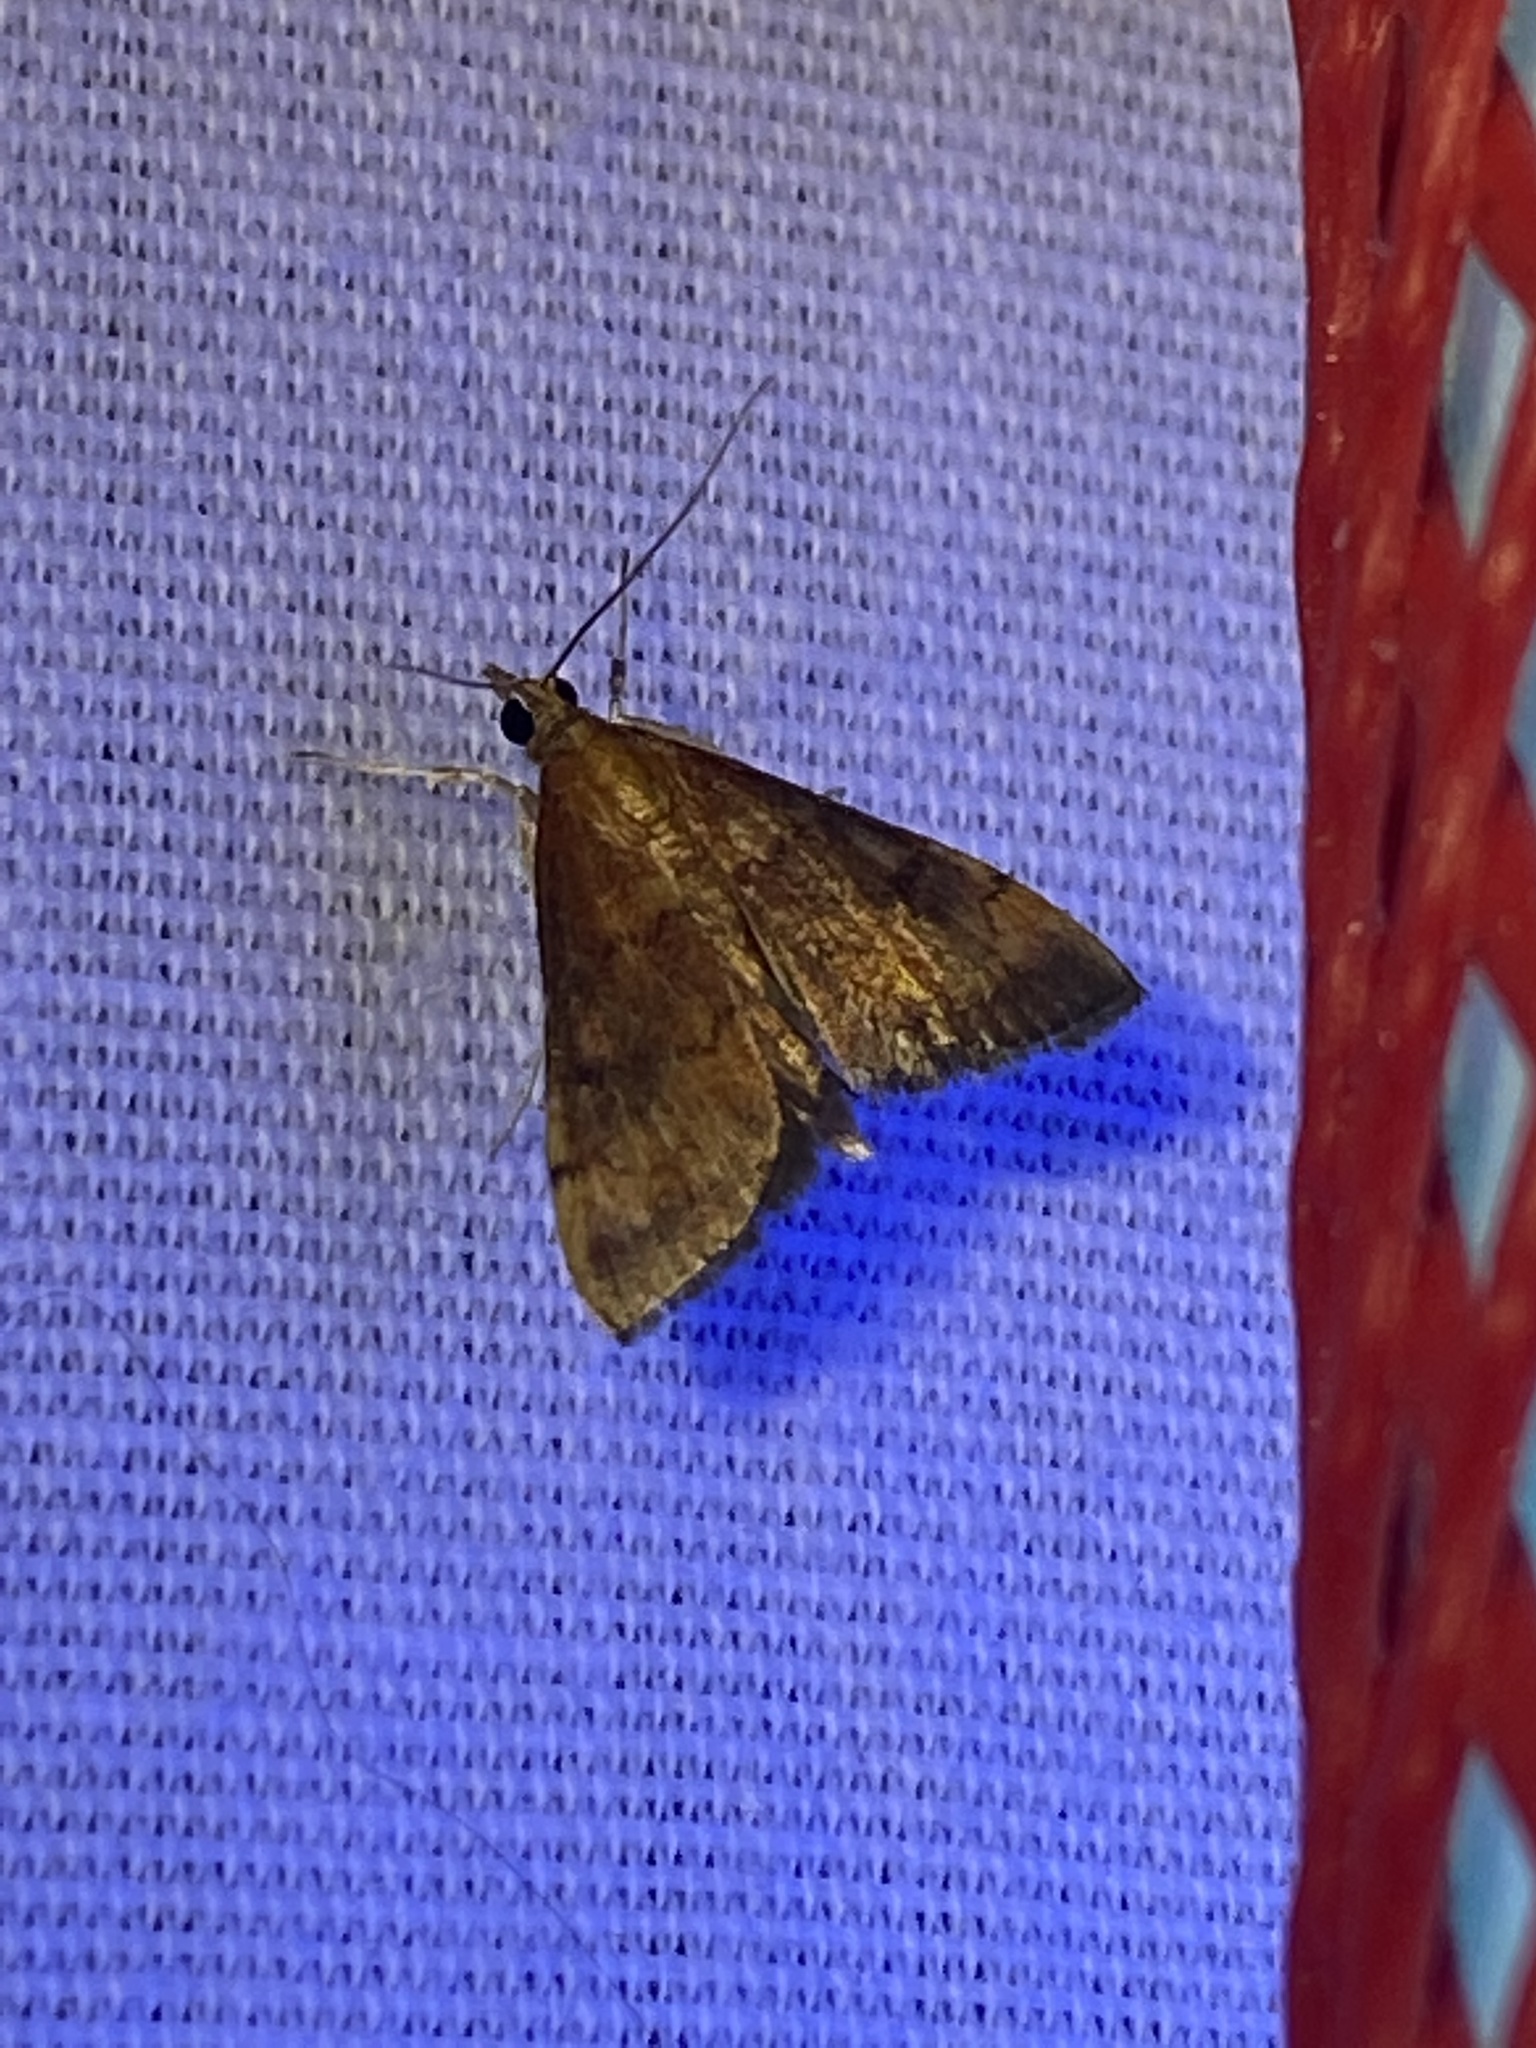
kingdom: Animalia
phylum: Arthropoda
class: Insecta
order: Lepidoptera
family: Crambidae
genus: Pyrausta
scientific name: Pyrausta rubricalis
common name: Variable reddish pyrausta
